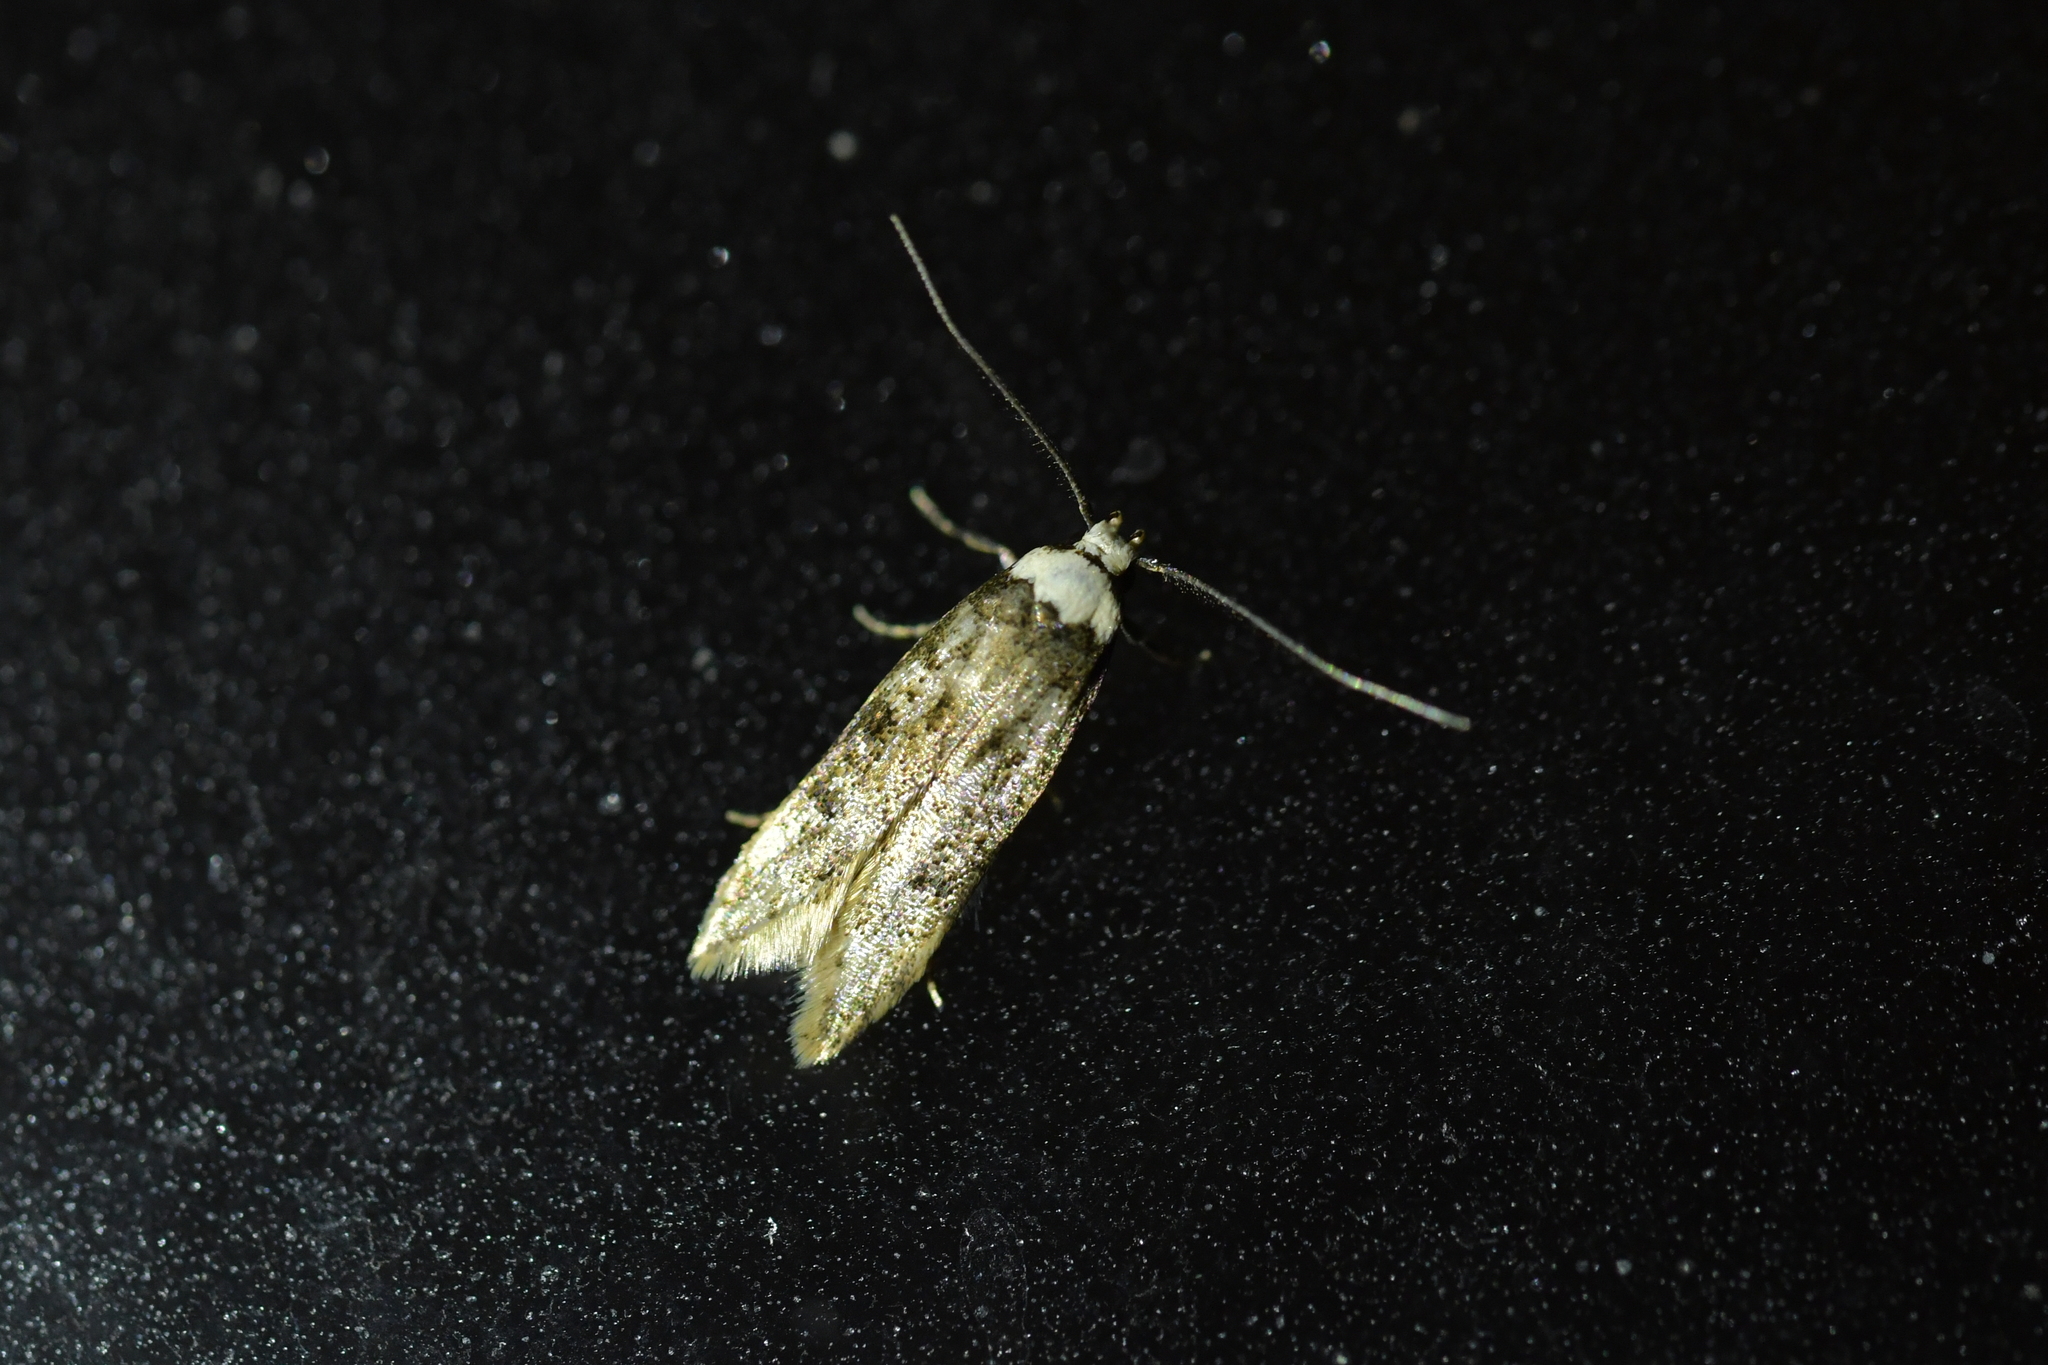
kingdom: Animalia
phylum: Arthropoda
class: Insecta
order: Lepidoptera
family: Oecophoridae
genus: Endrosis
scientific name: Endrosis sarcitrella
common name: White-shouldered house moth
